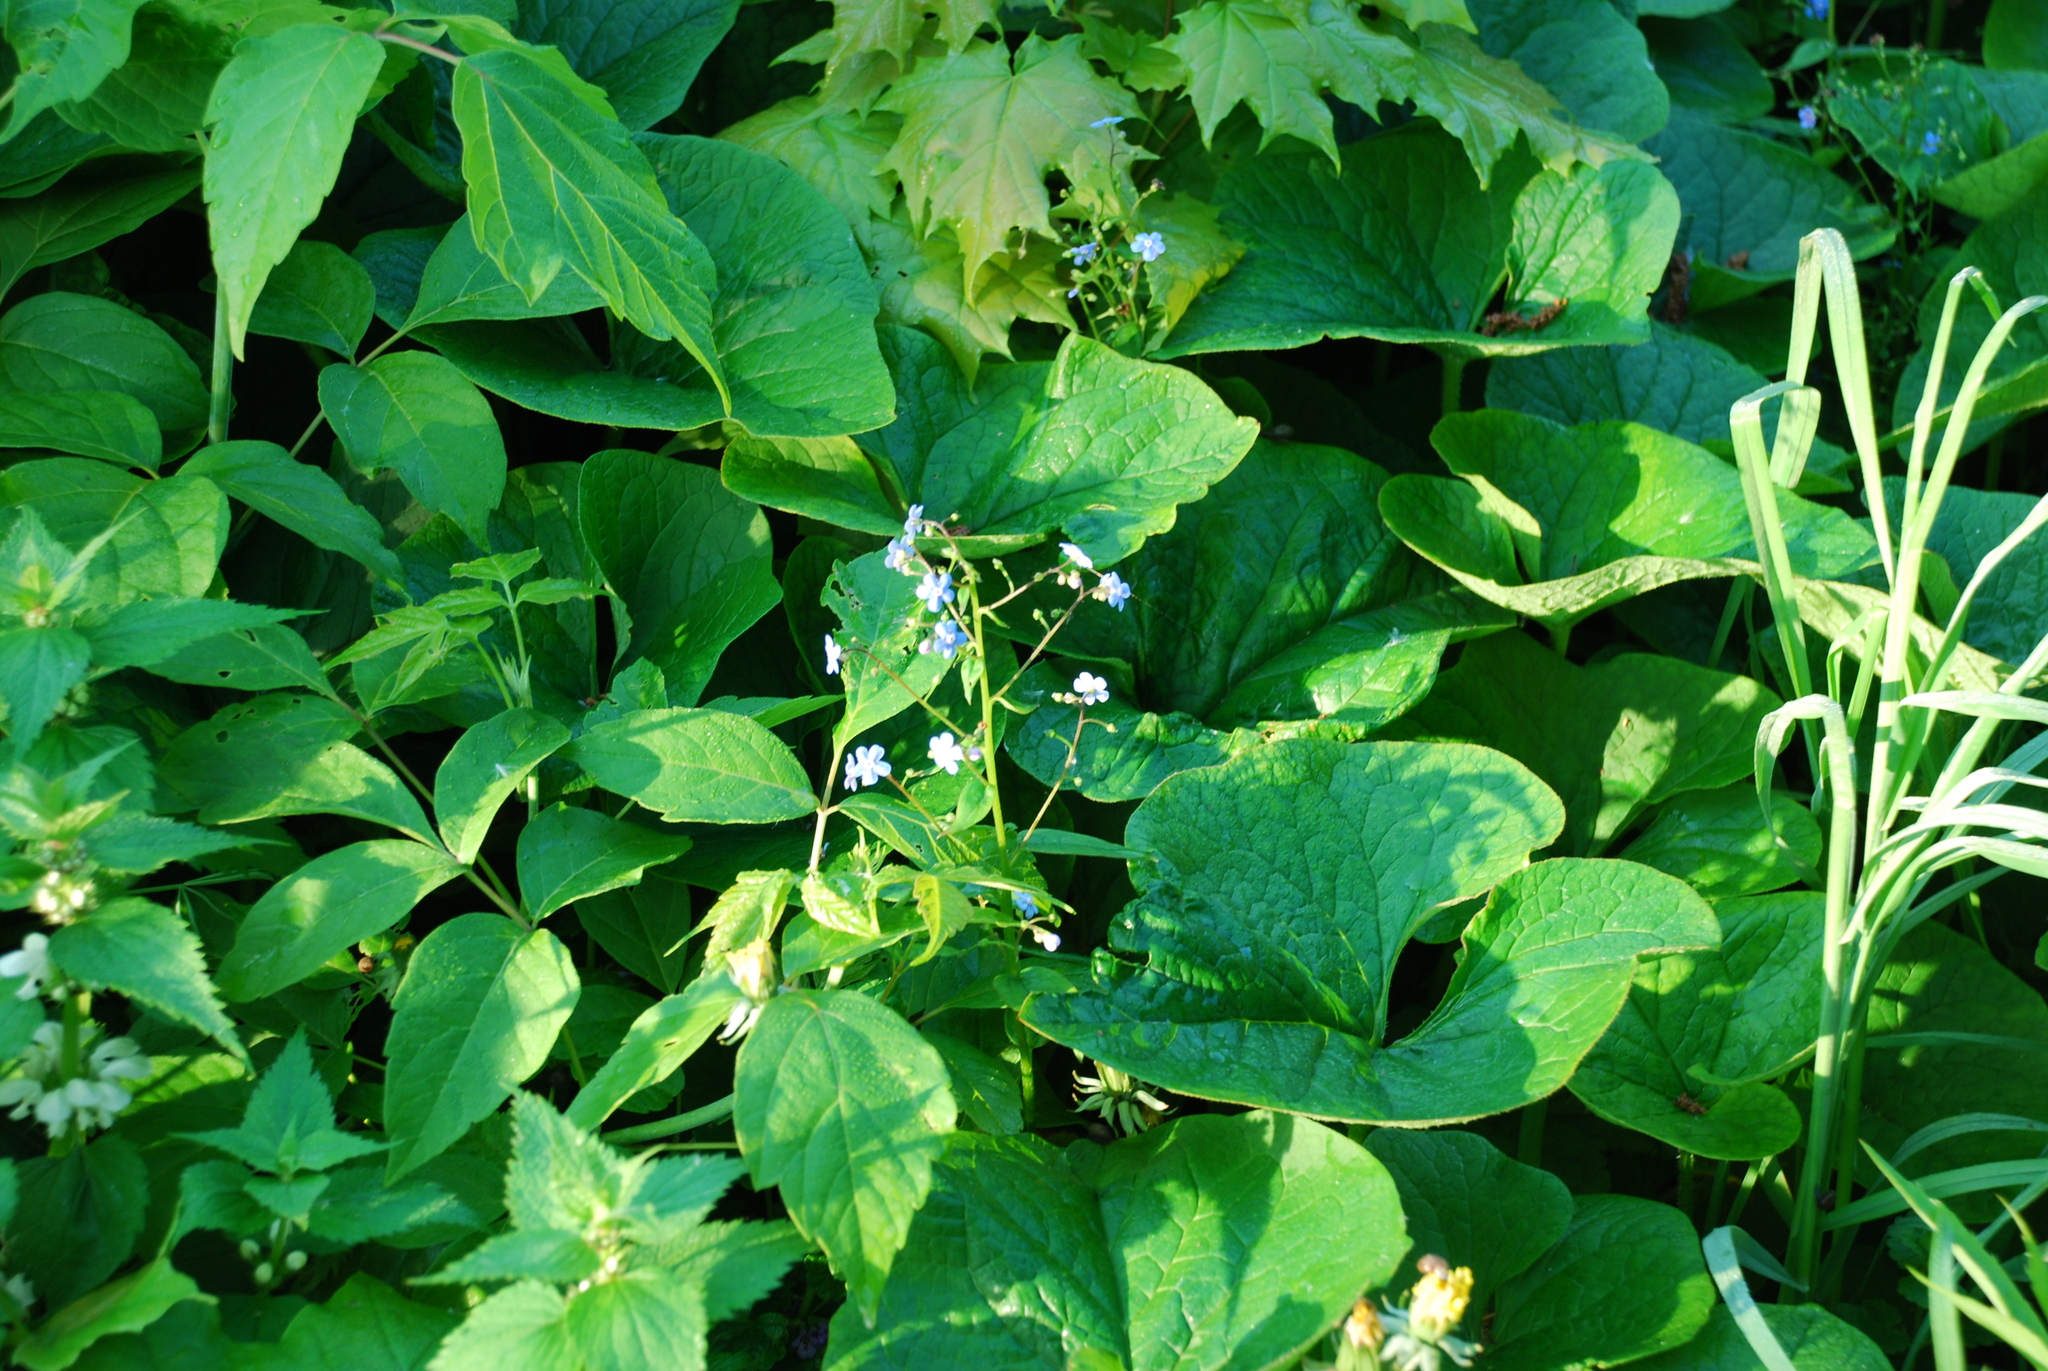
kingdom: Plantae
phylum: Tracheophyta
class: Magnoliopsida
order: Boraginales
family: Boraginaceae
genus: Brunnera
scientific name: Brunnera sibirica
